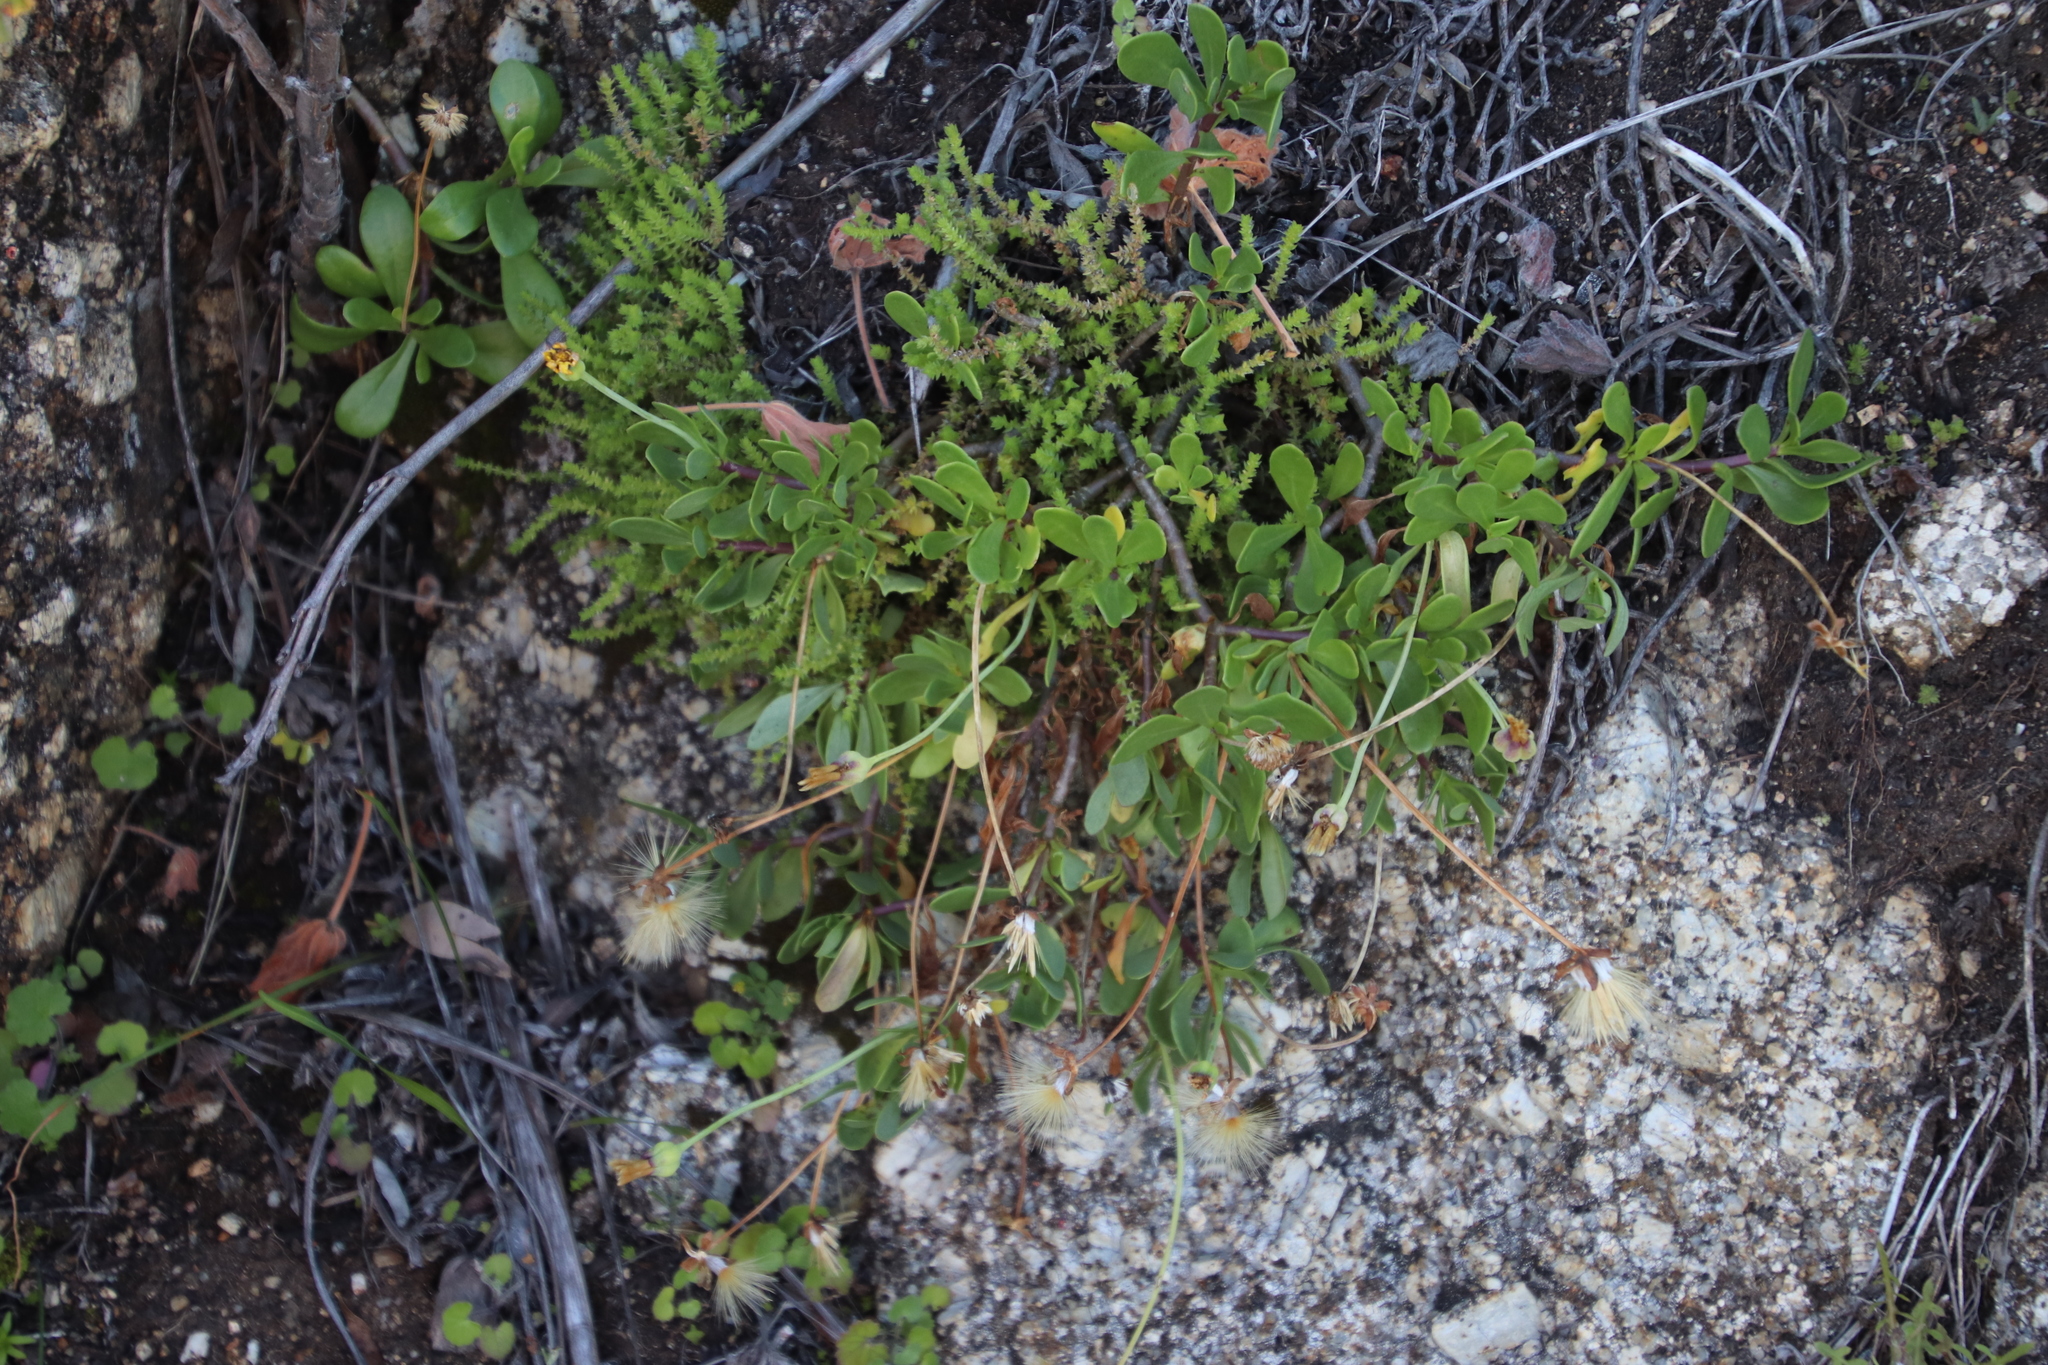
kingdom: Plantae
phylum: Tracheophyta
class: Magnoliopsida
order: Asterales
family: Asteraceae
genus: Othonna
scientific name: Othonna arborescens
